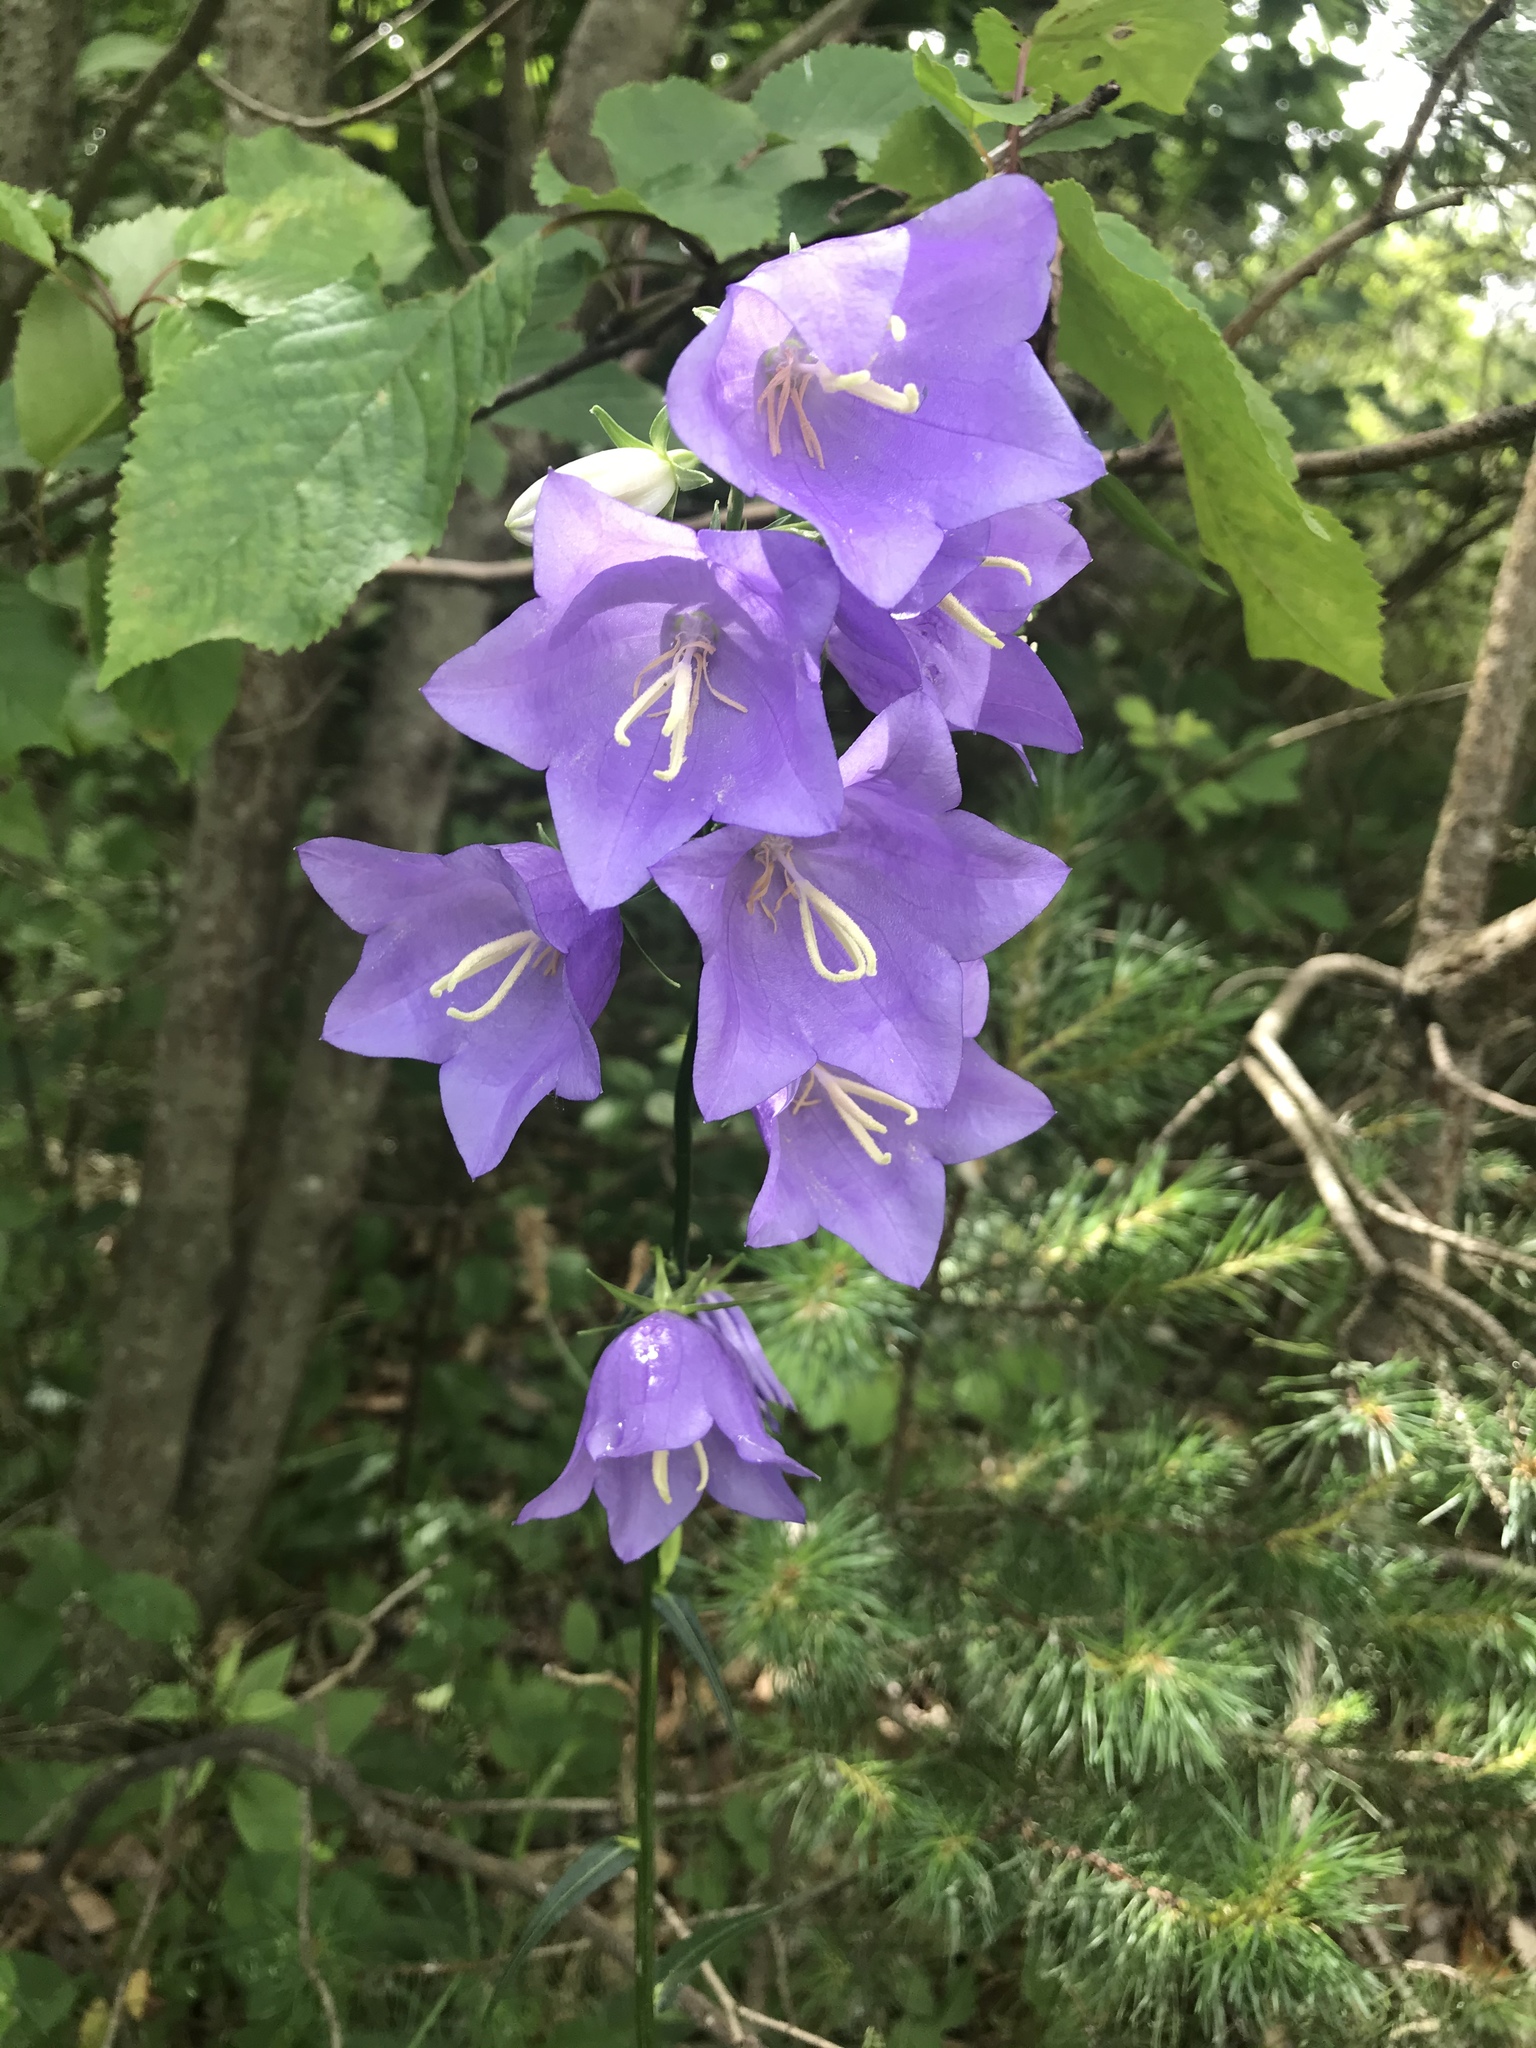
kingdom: Plantae
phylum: Tracheophyta
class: Magnoliopsida
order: Asterales
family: Campanulaceae
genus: Campanula
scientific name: Campanula persicifolia
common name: Peach-leaved bellflower
